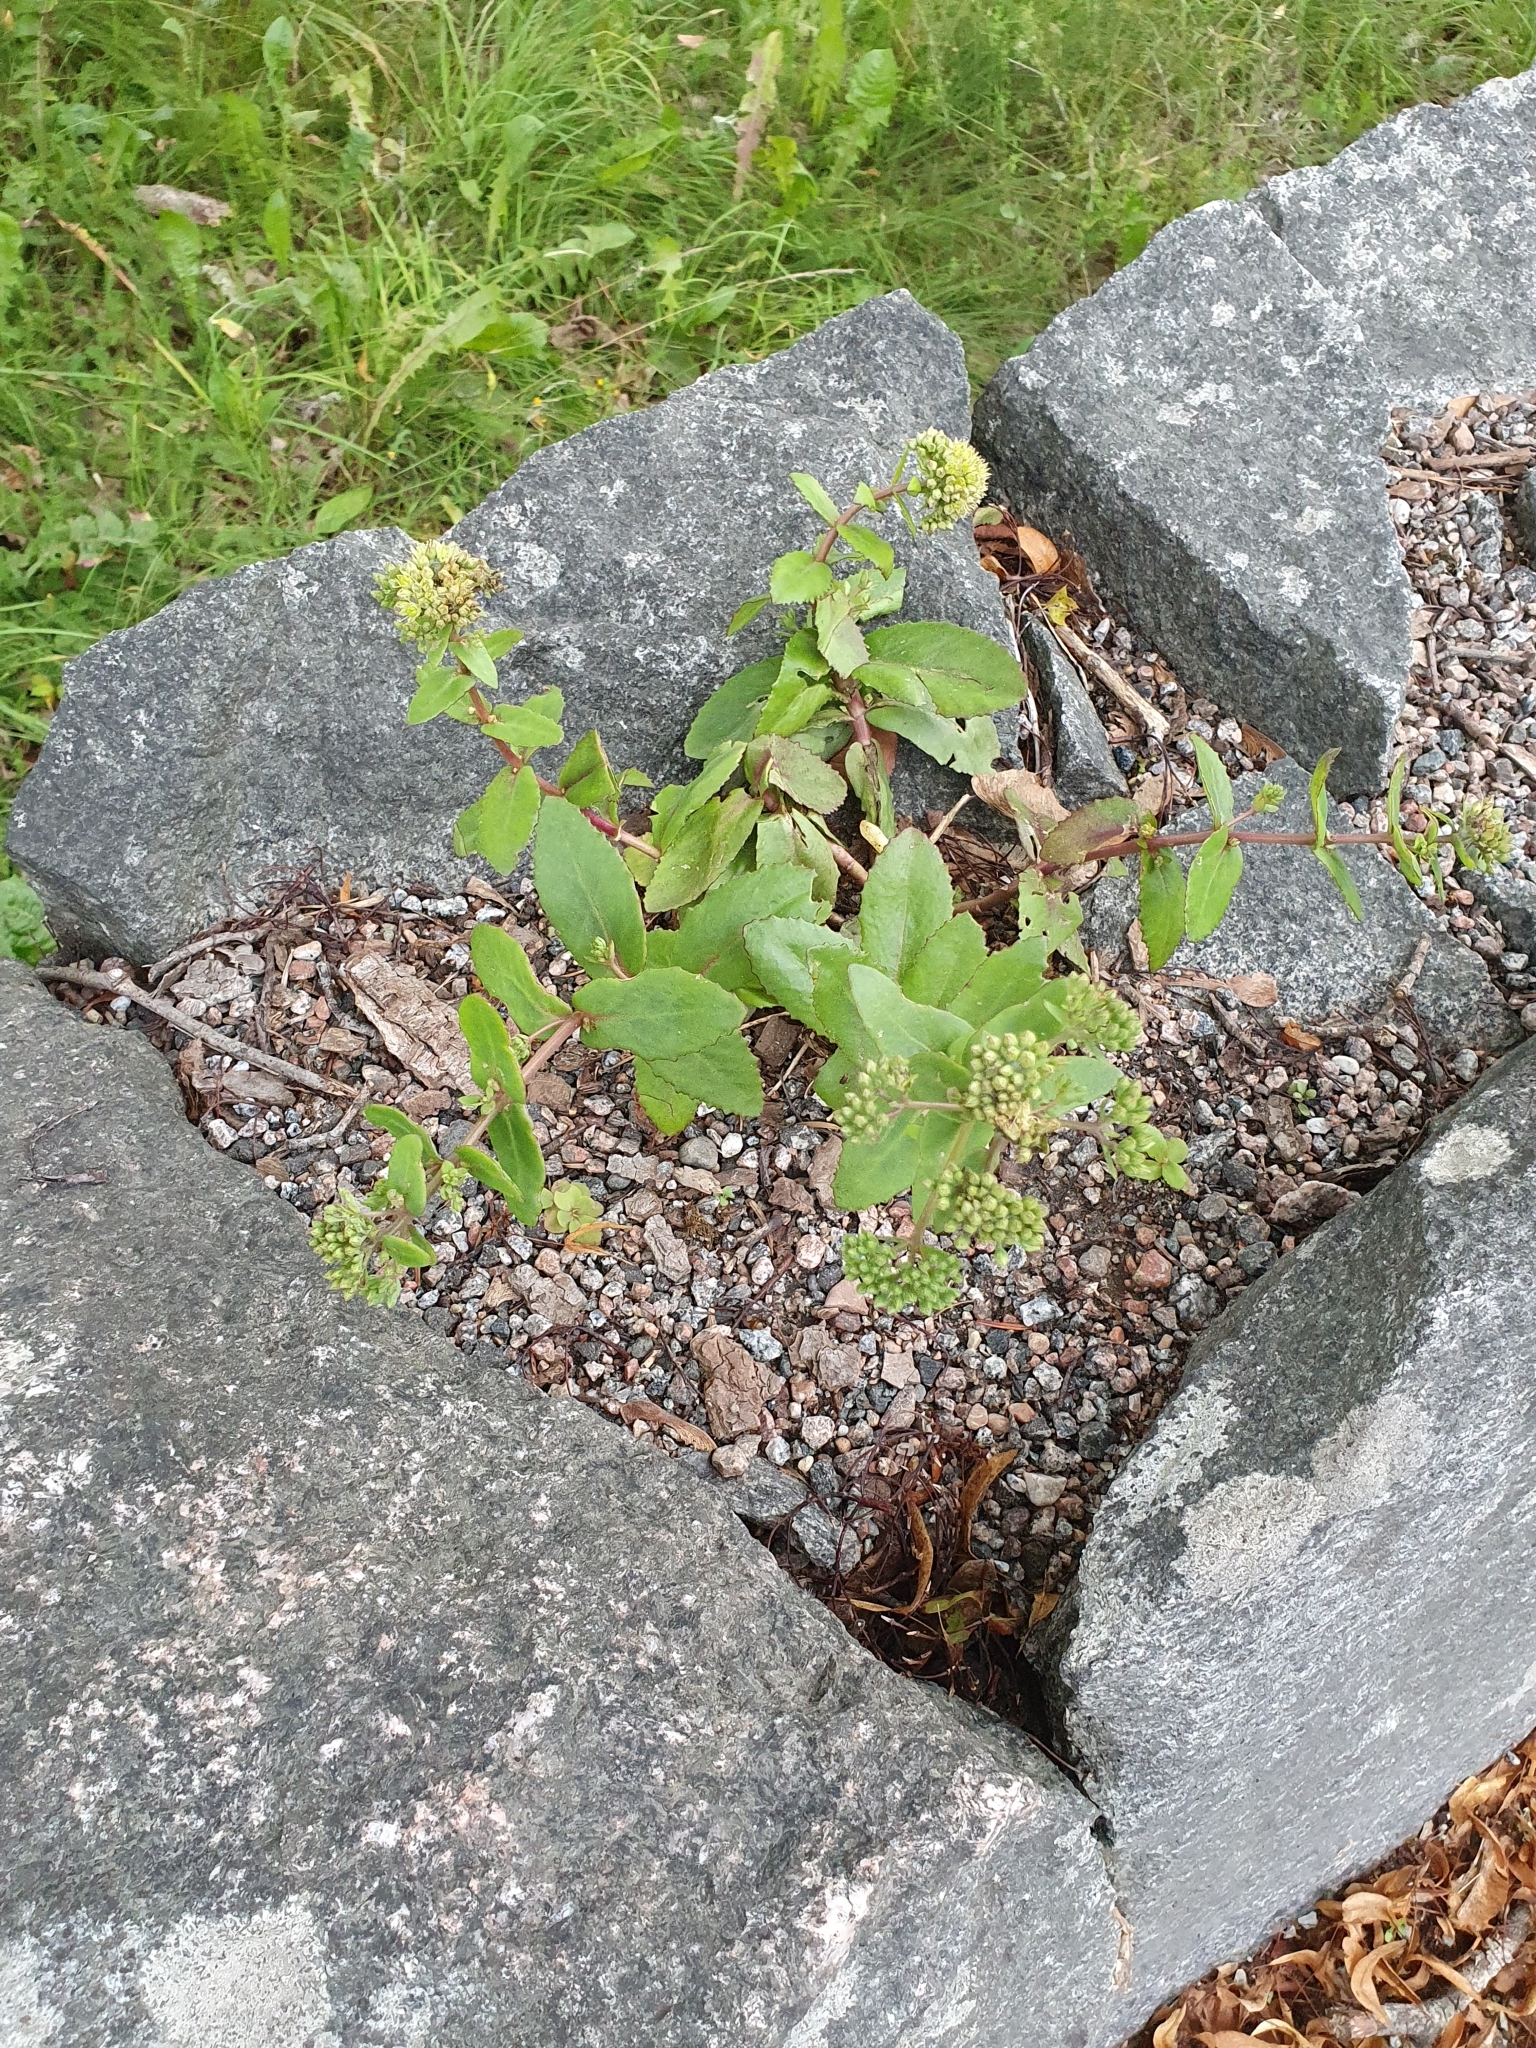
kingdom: Plantae
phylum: Tracheophyta
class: Magnoliopsida
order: Saxifragales
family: Crassulaceae
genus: Hylotelephium
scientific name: Hylotelephium maximum
